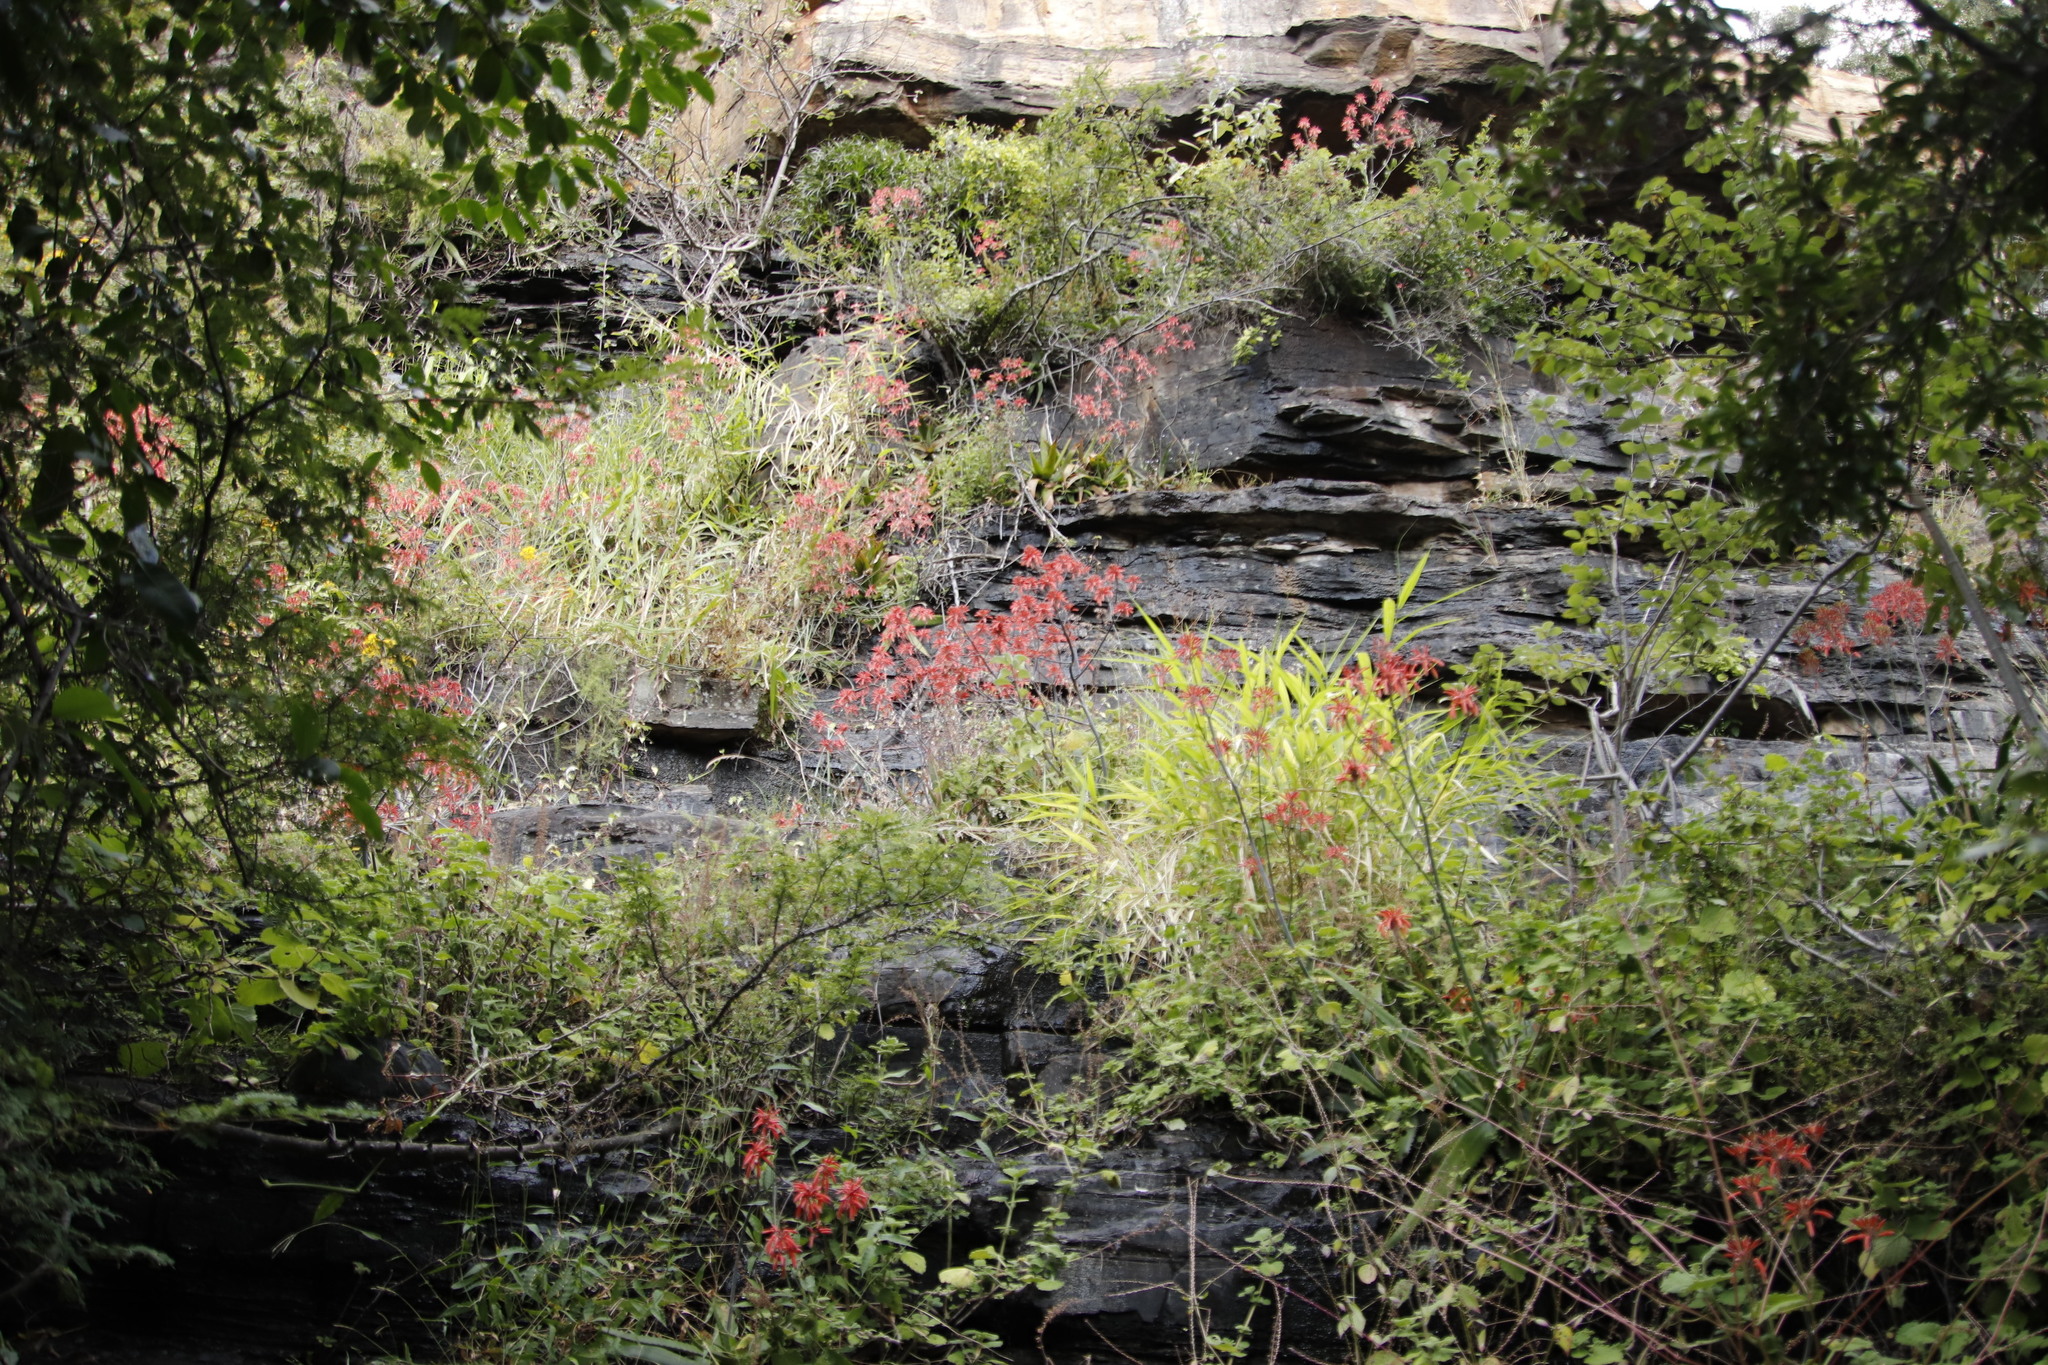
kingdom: Plantae
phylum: Tracheophyta
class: Liliopsida
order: Asparagales
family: Asphodelaceae
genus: Aloe
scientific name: Aloe branddraaiensis
